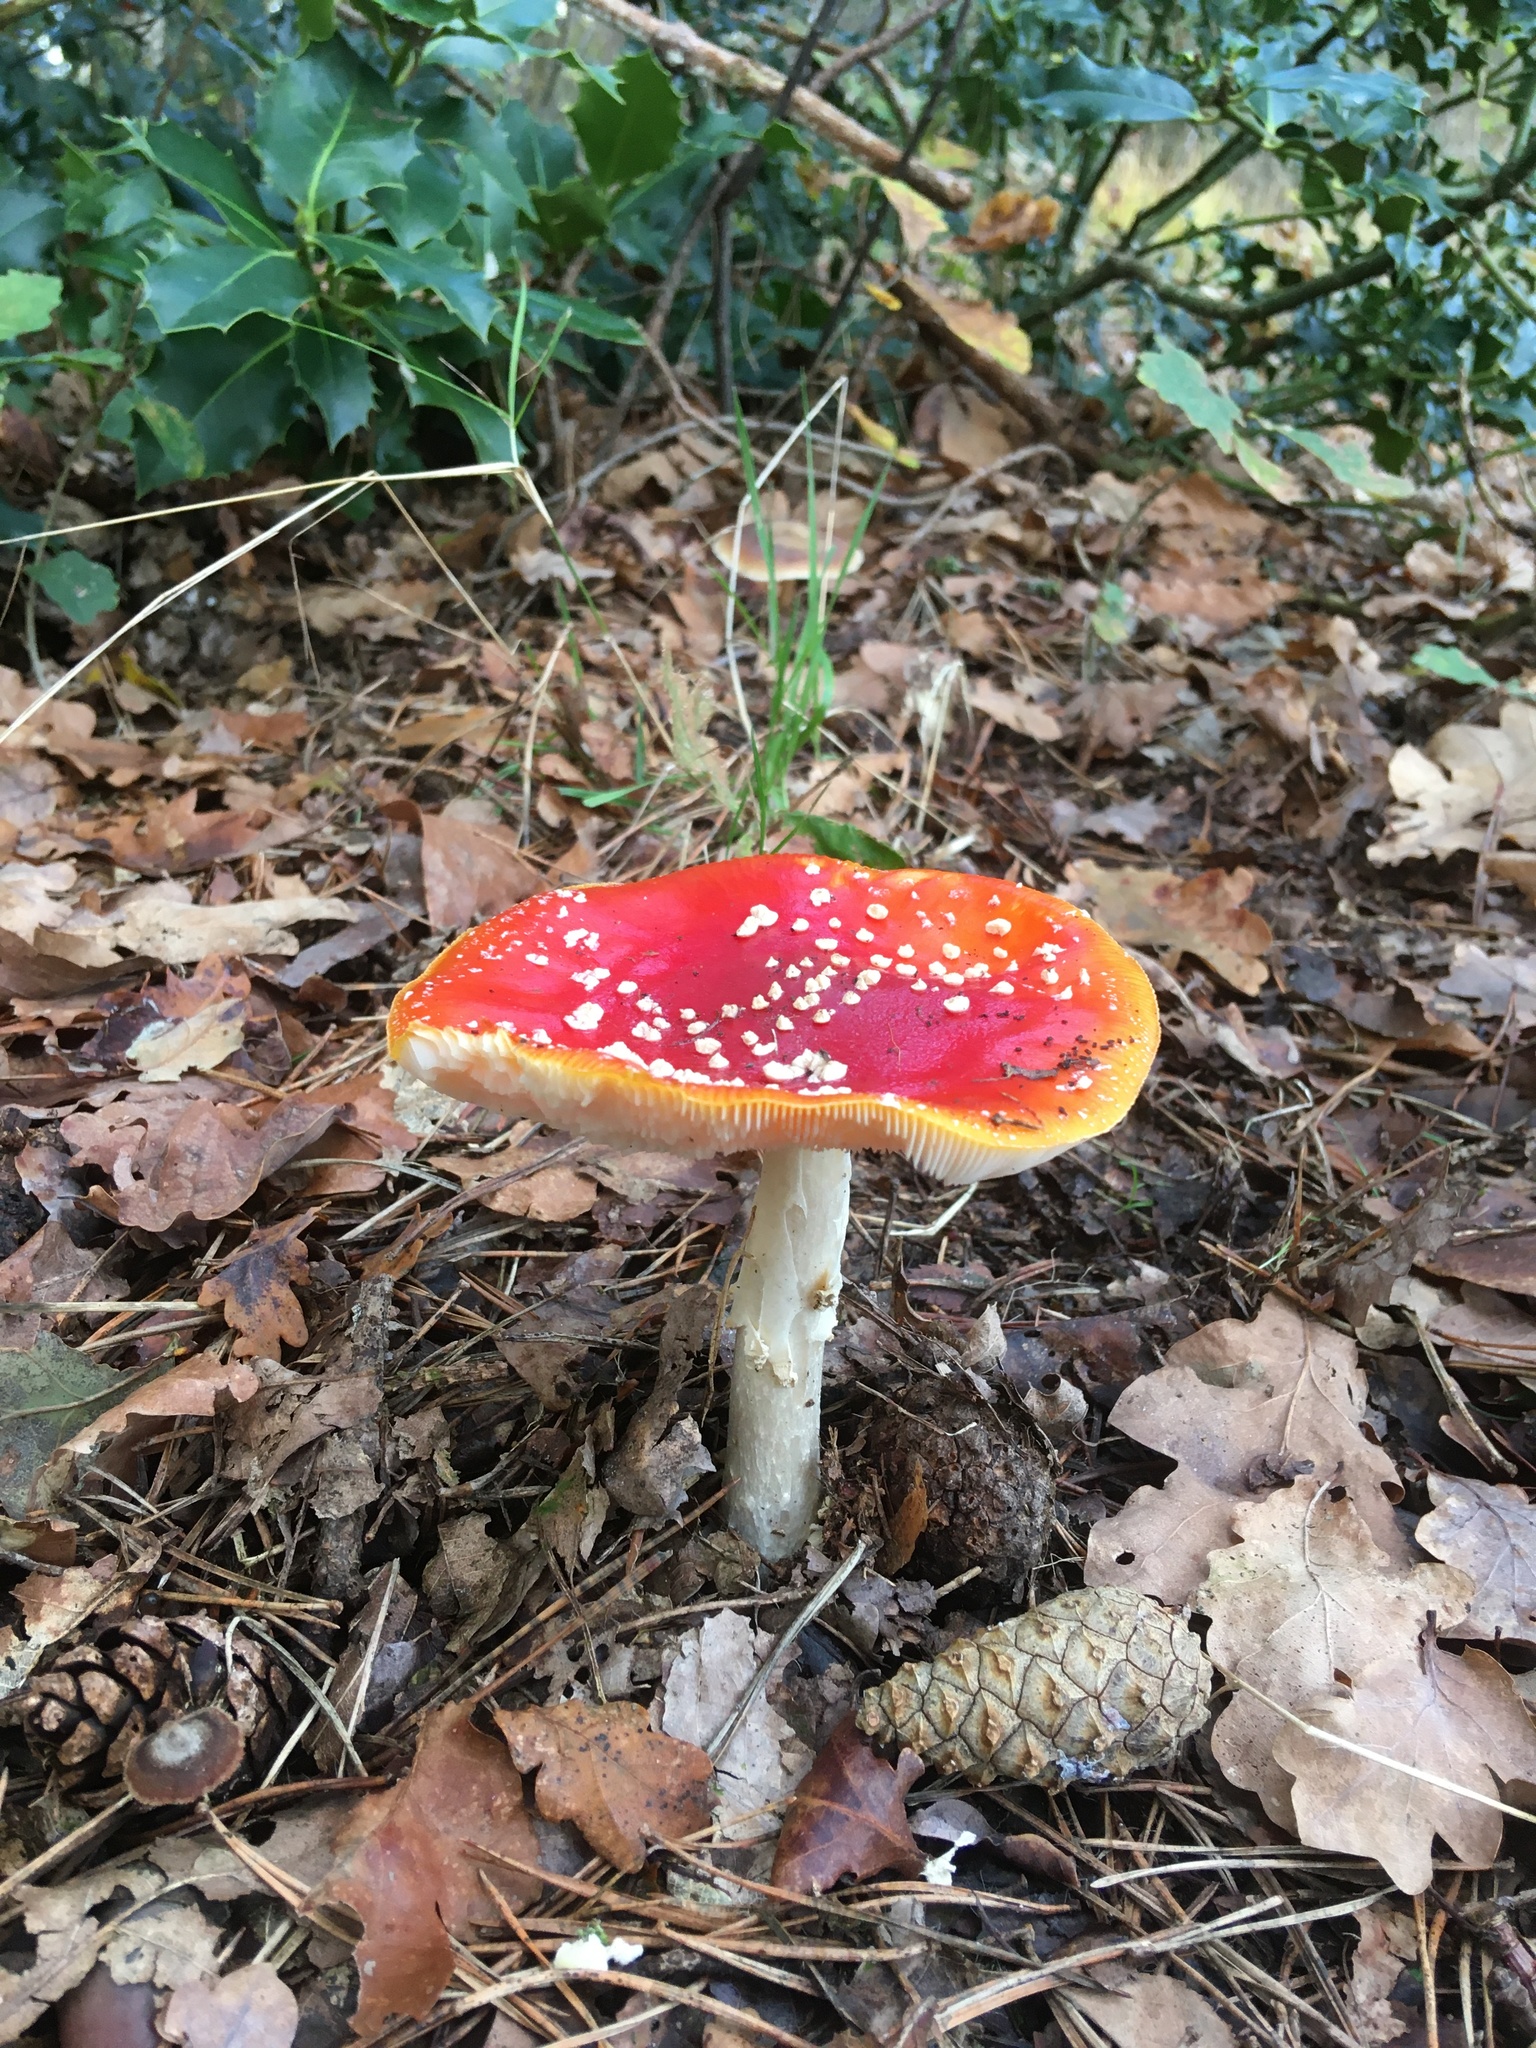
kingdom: Fungi
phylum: Basidiomycota
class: Agaricomycetes
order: Agaricales
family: Amanitaceae
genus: Amanita
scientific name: Amanita muscaria
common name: Fly agaric
